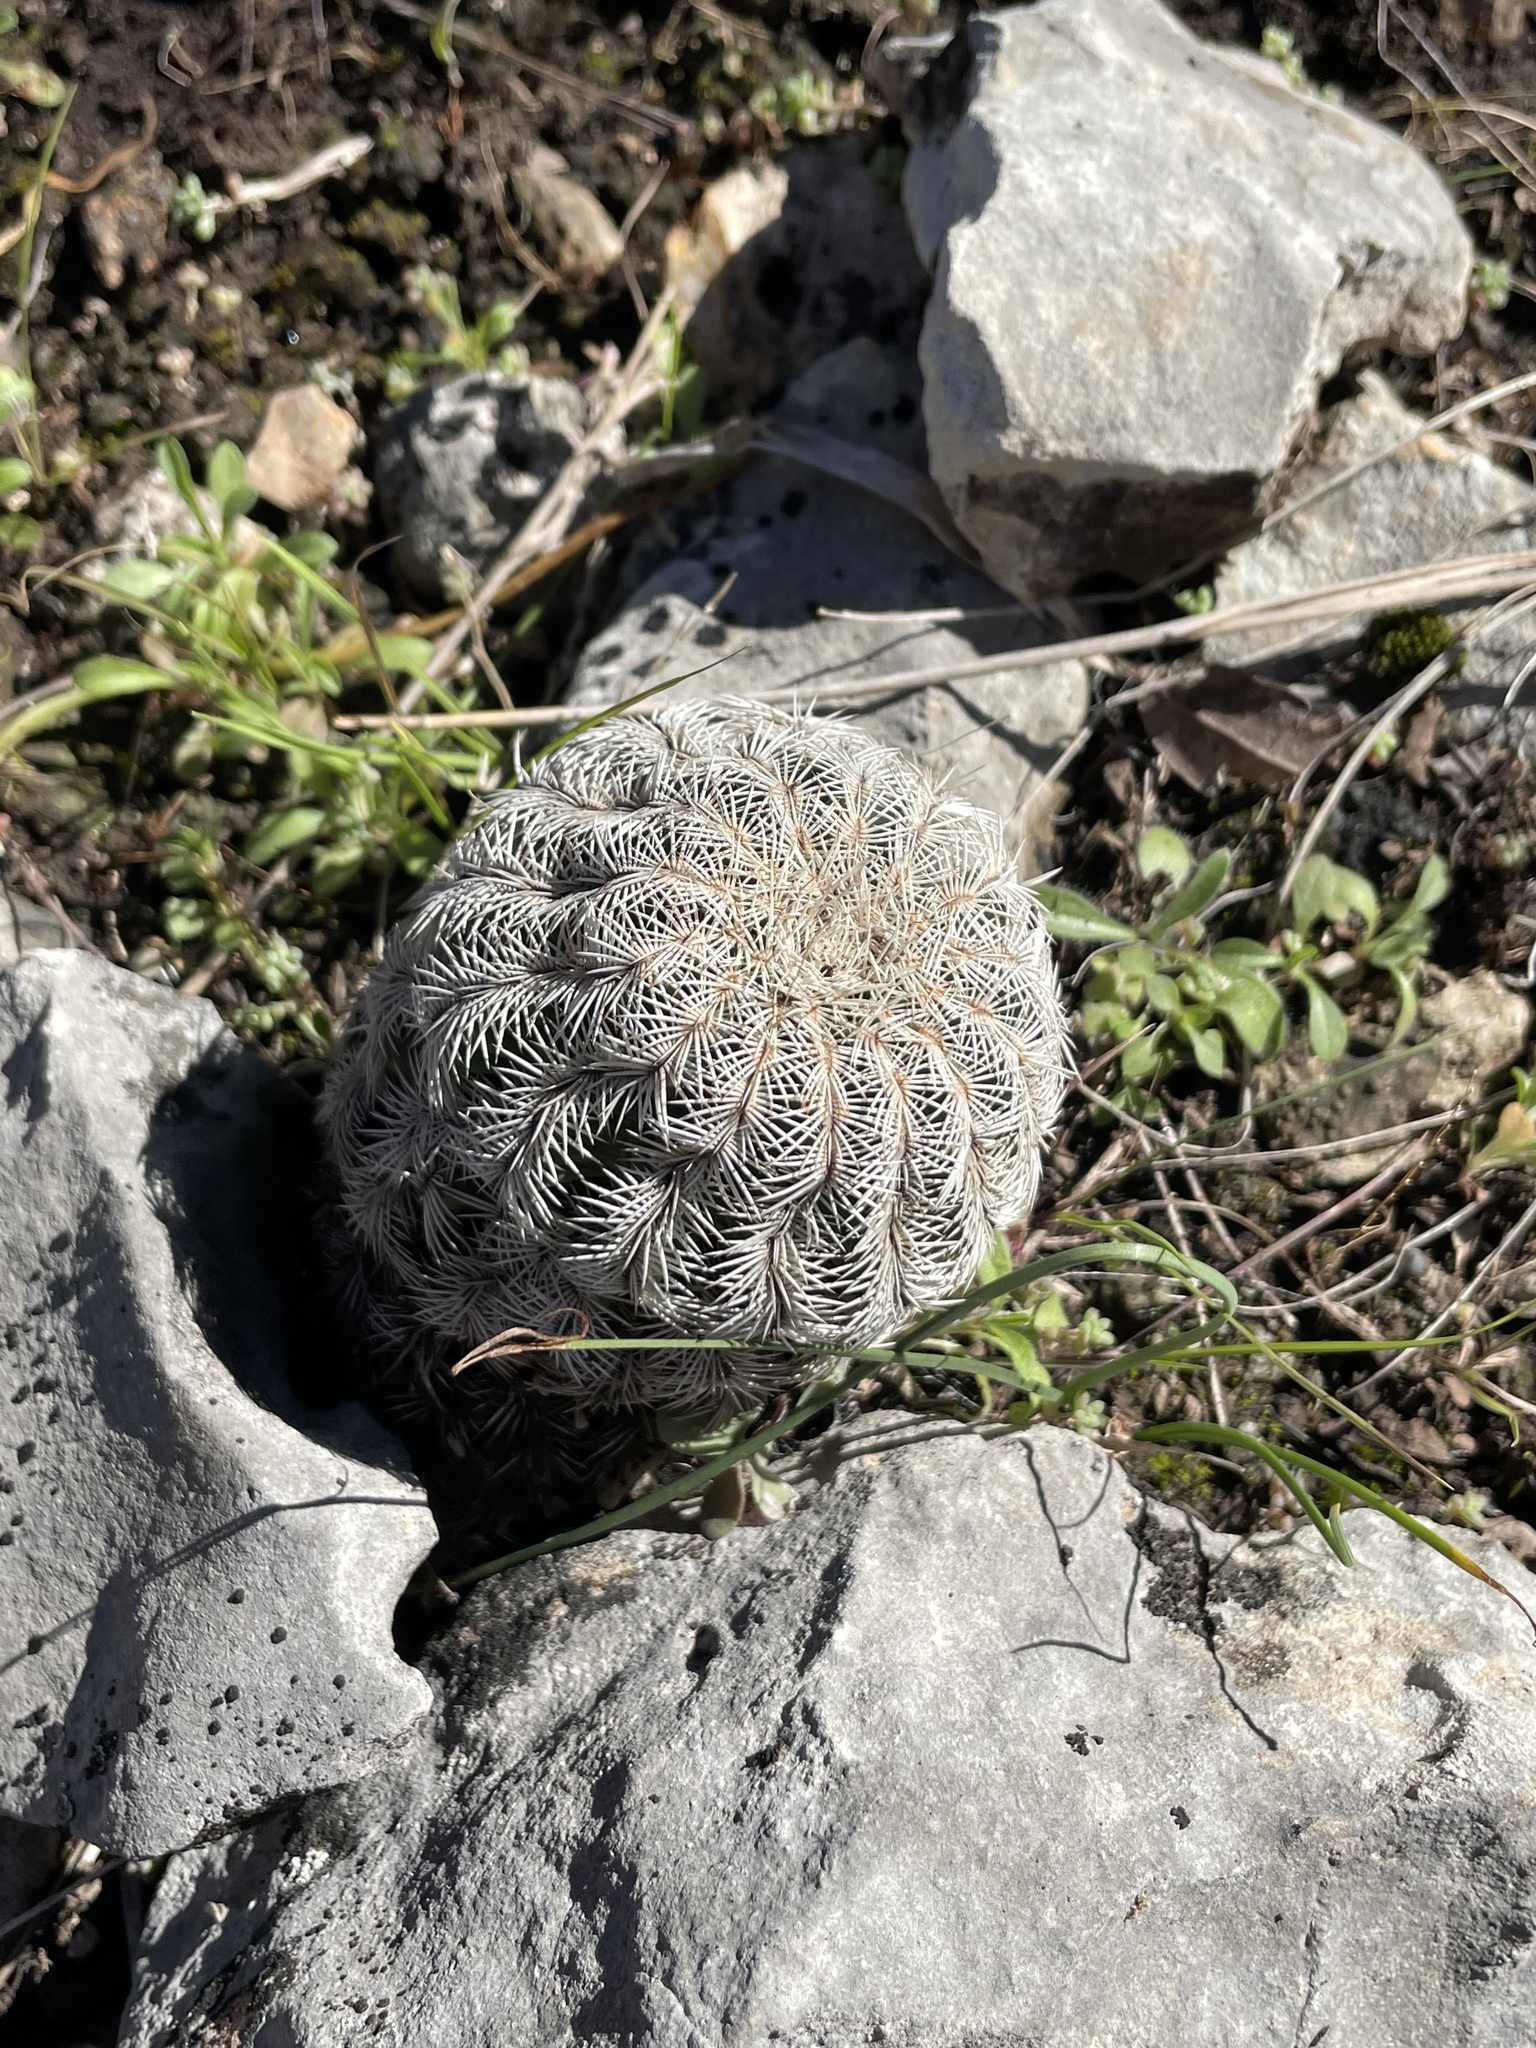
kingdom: Plantae
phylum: Tracheophyta
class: Magnoliopsida
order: Caryophyllales
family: Cactaceae
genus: Echinocereus
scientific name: Echinocereus reichenbachii
